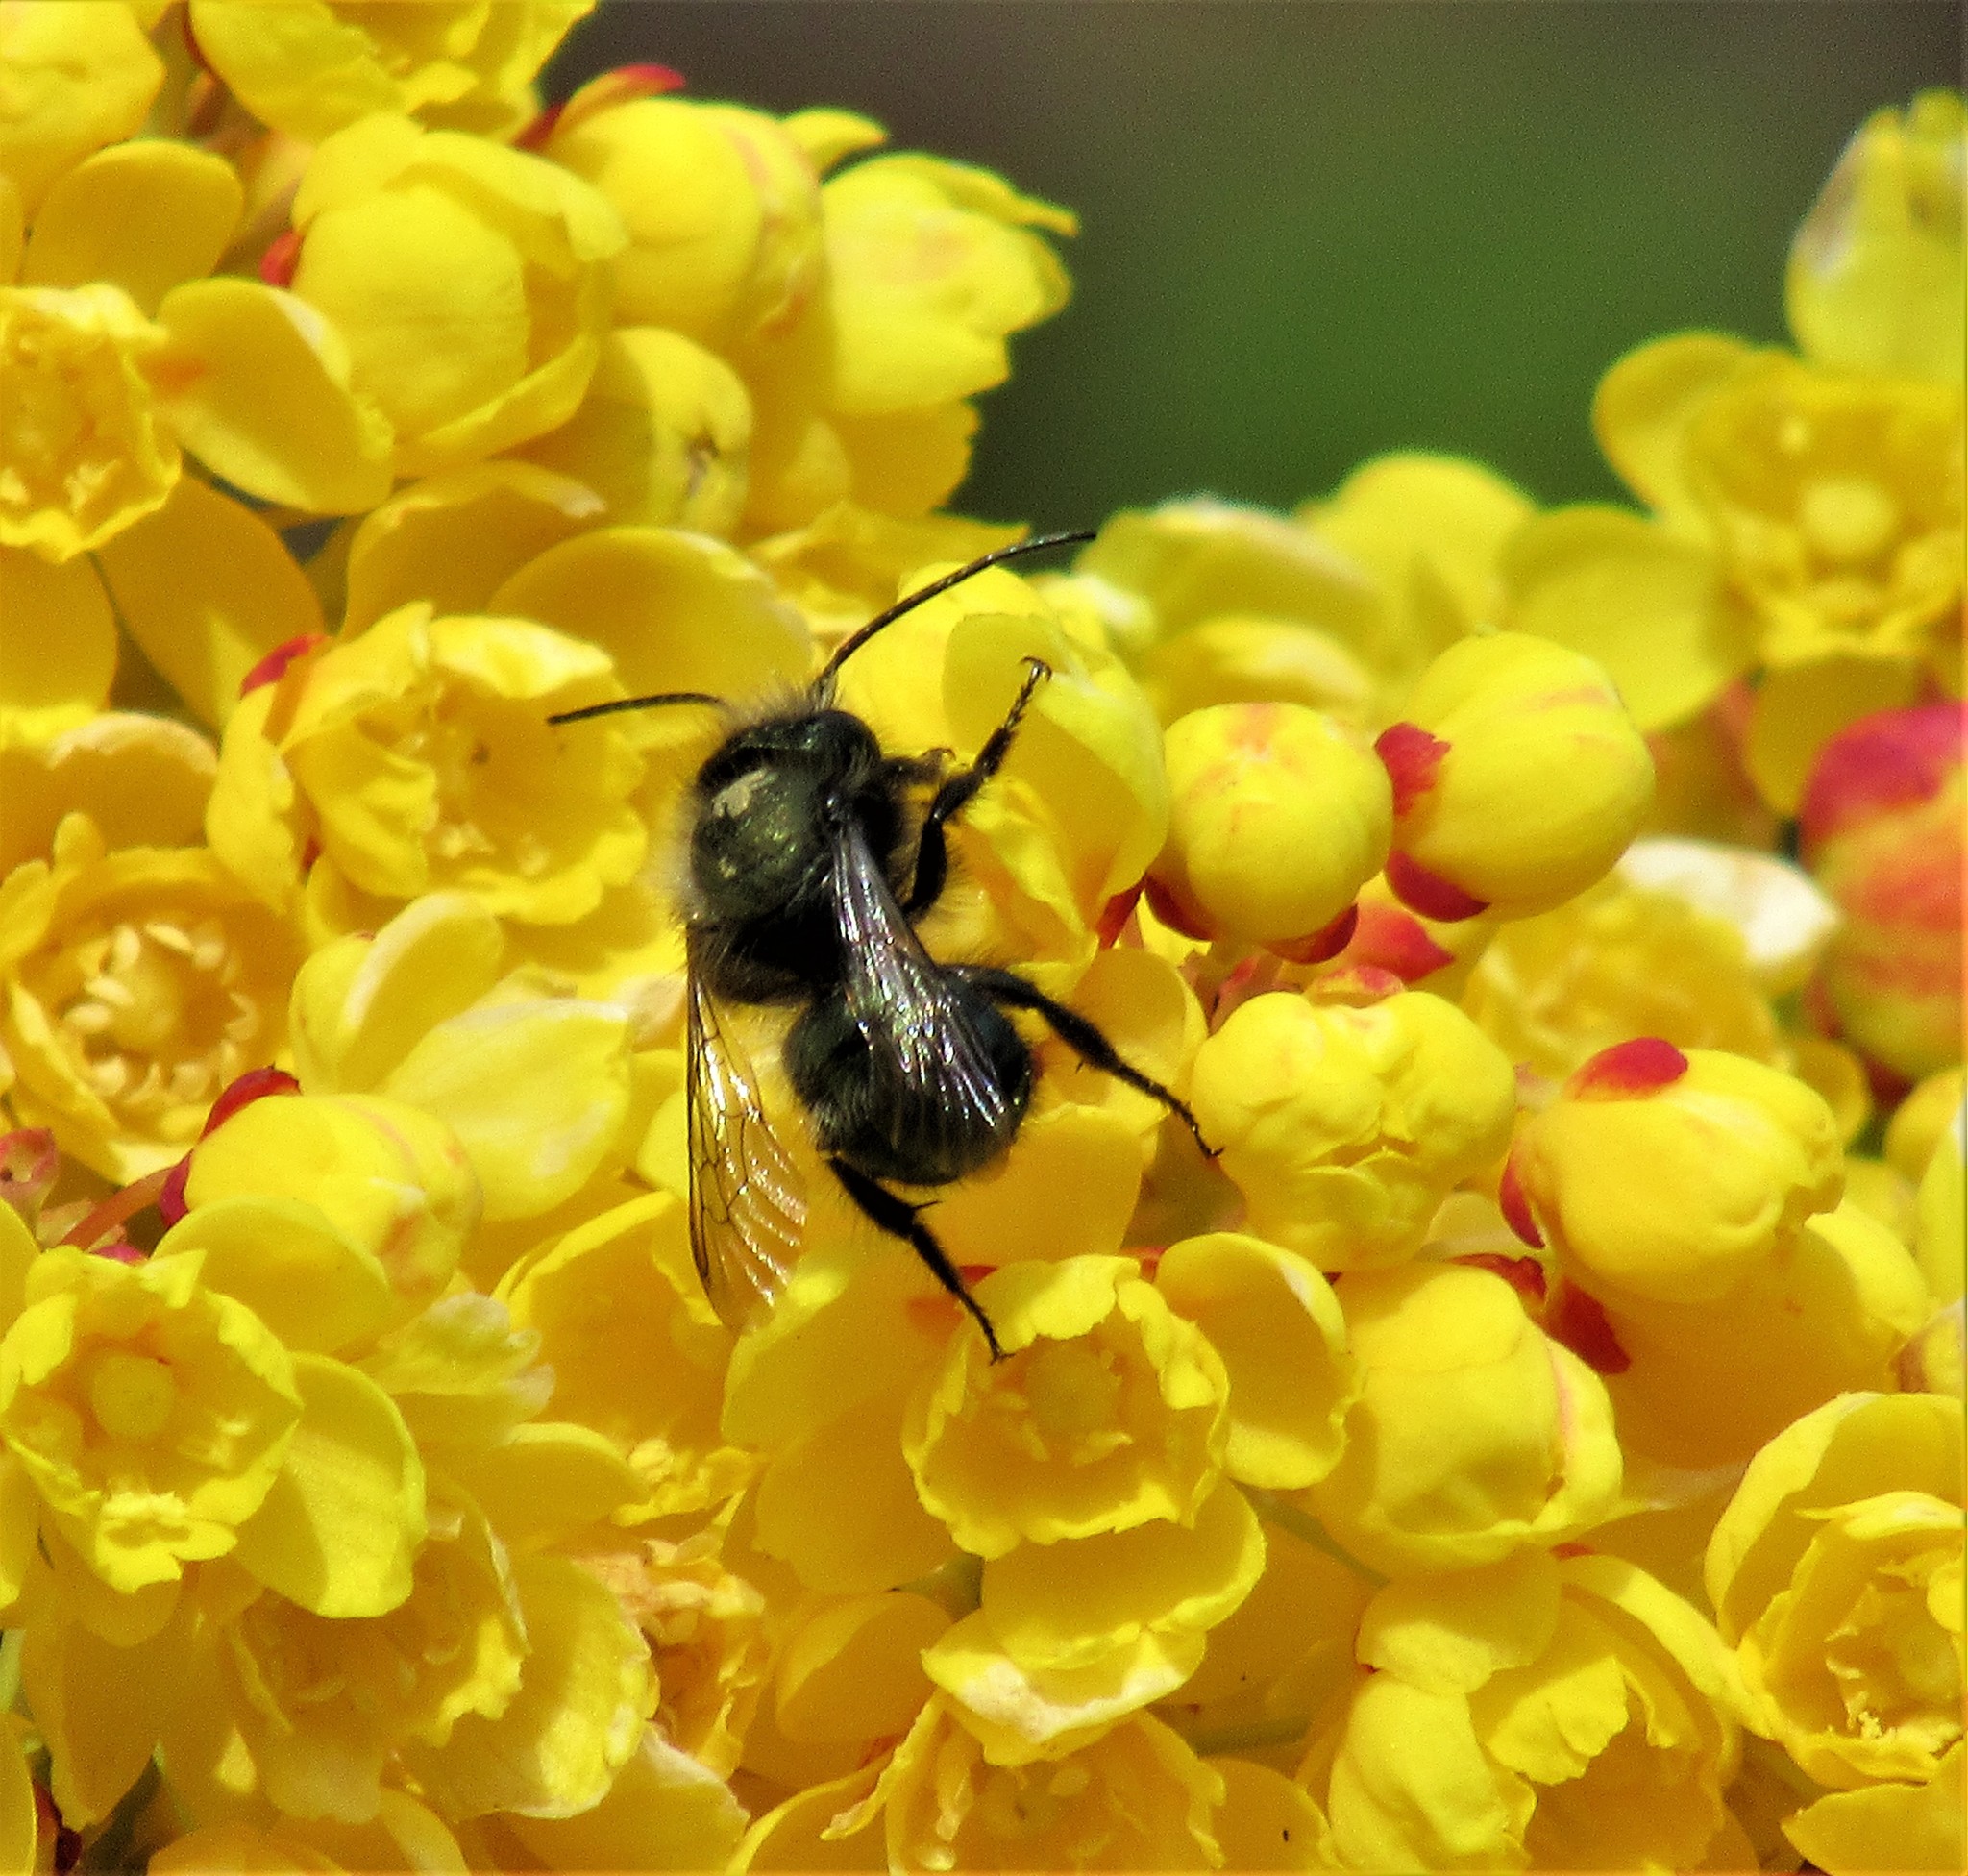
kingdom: Animalia
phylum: Arthropoda
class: Insecta
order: Hymenoptera
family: Megachilidae
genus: Osmia
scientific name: Osmia lignaria
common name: Blue orchard bee
